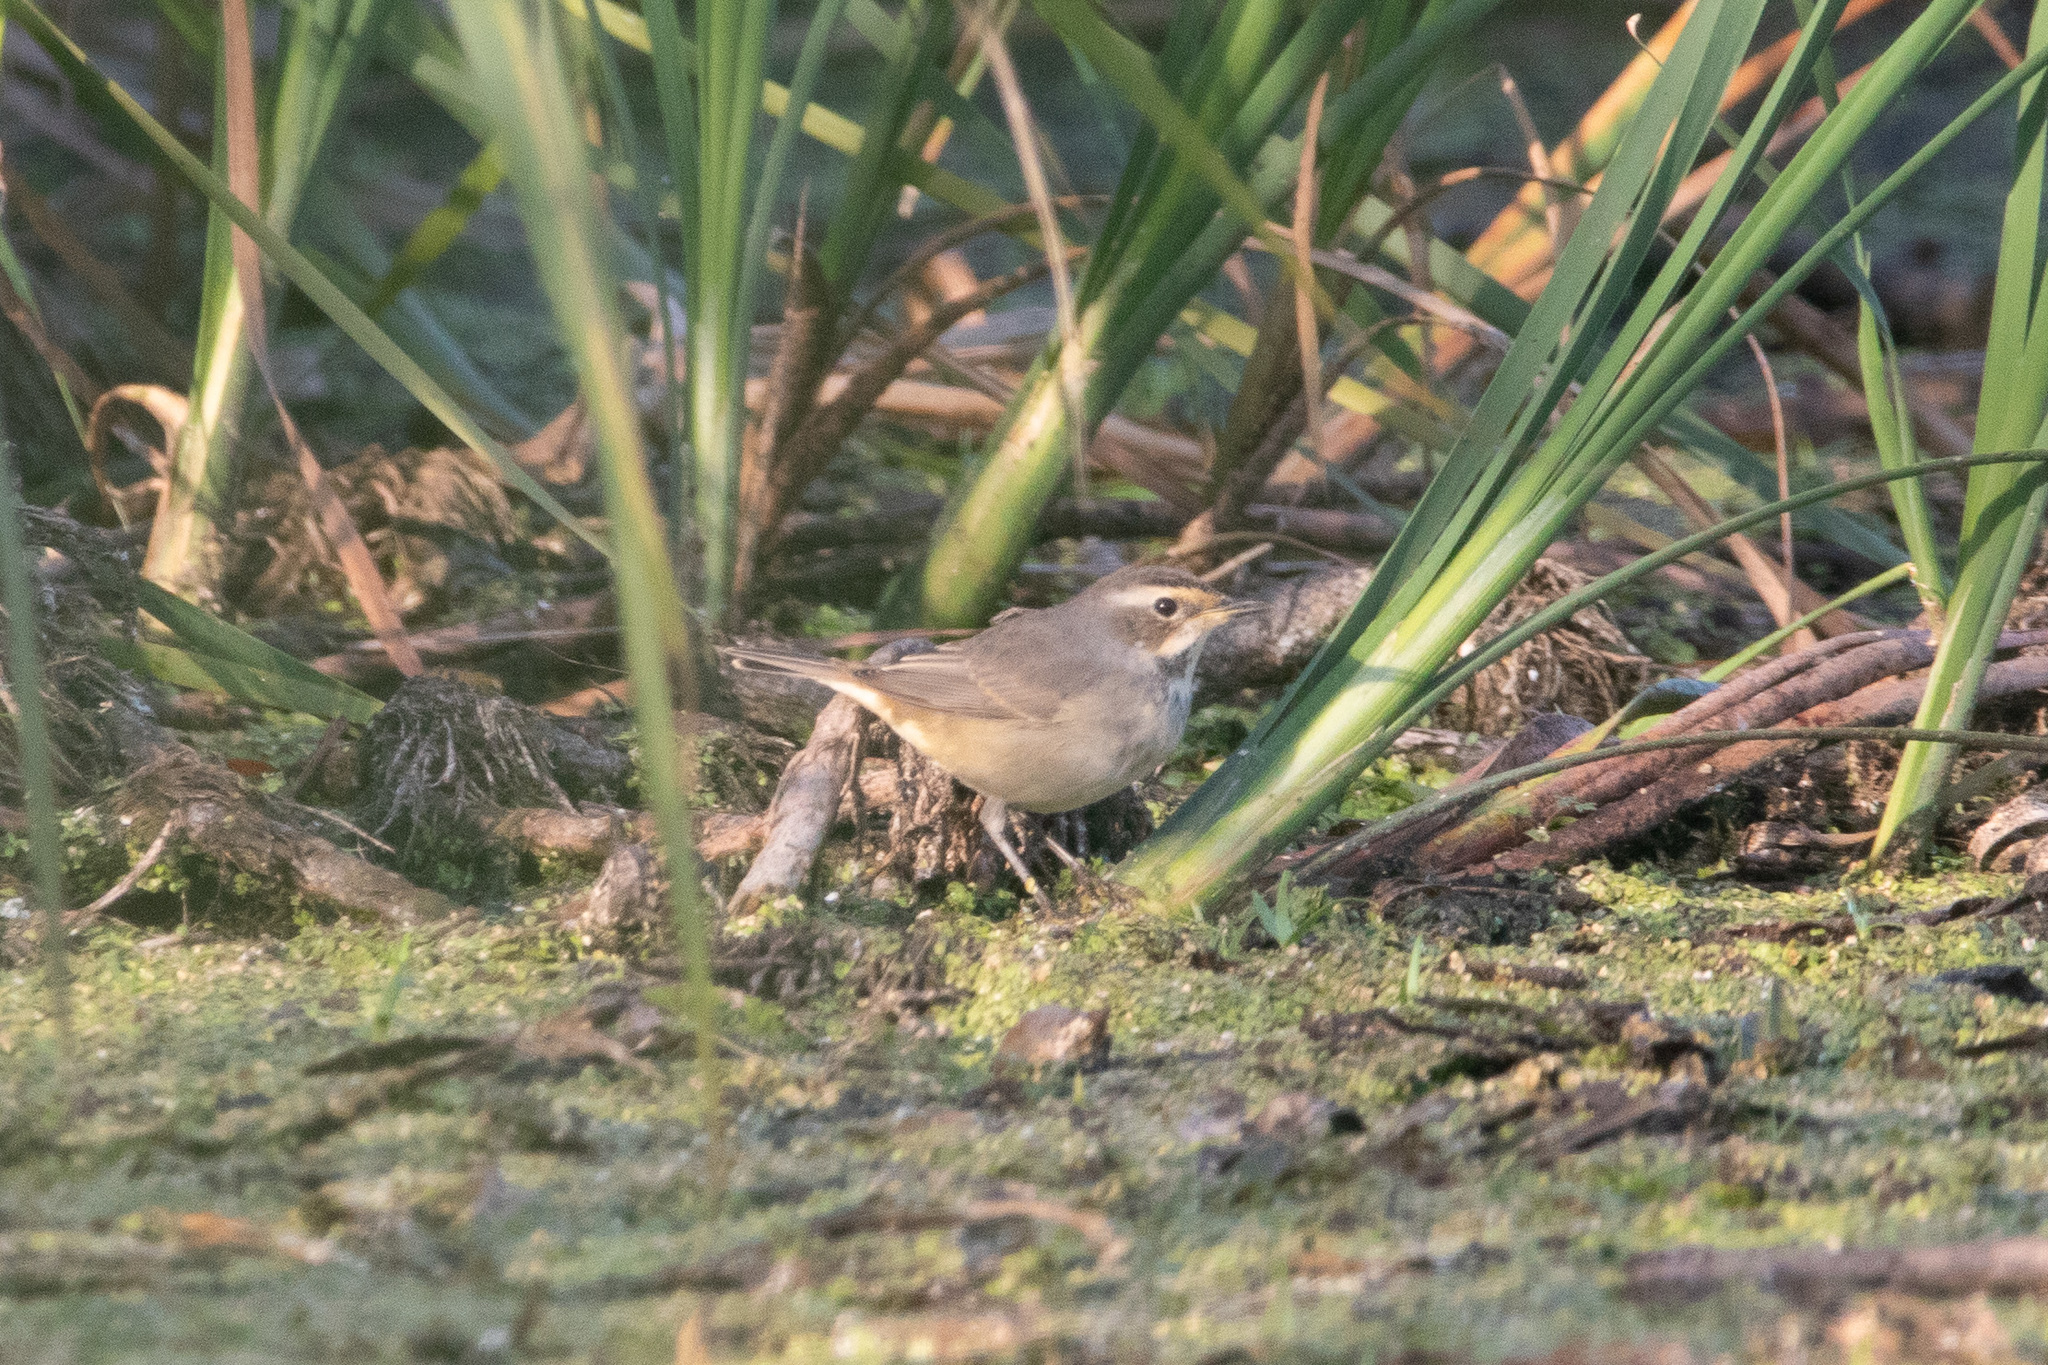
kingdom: Animalia
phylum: Chordata
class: Aves
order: Passeriformes
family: Muscicapidae
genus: Luscinia
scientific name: Luscinia svecica
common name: Bluethroat
